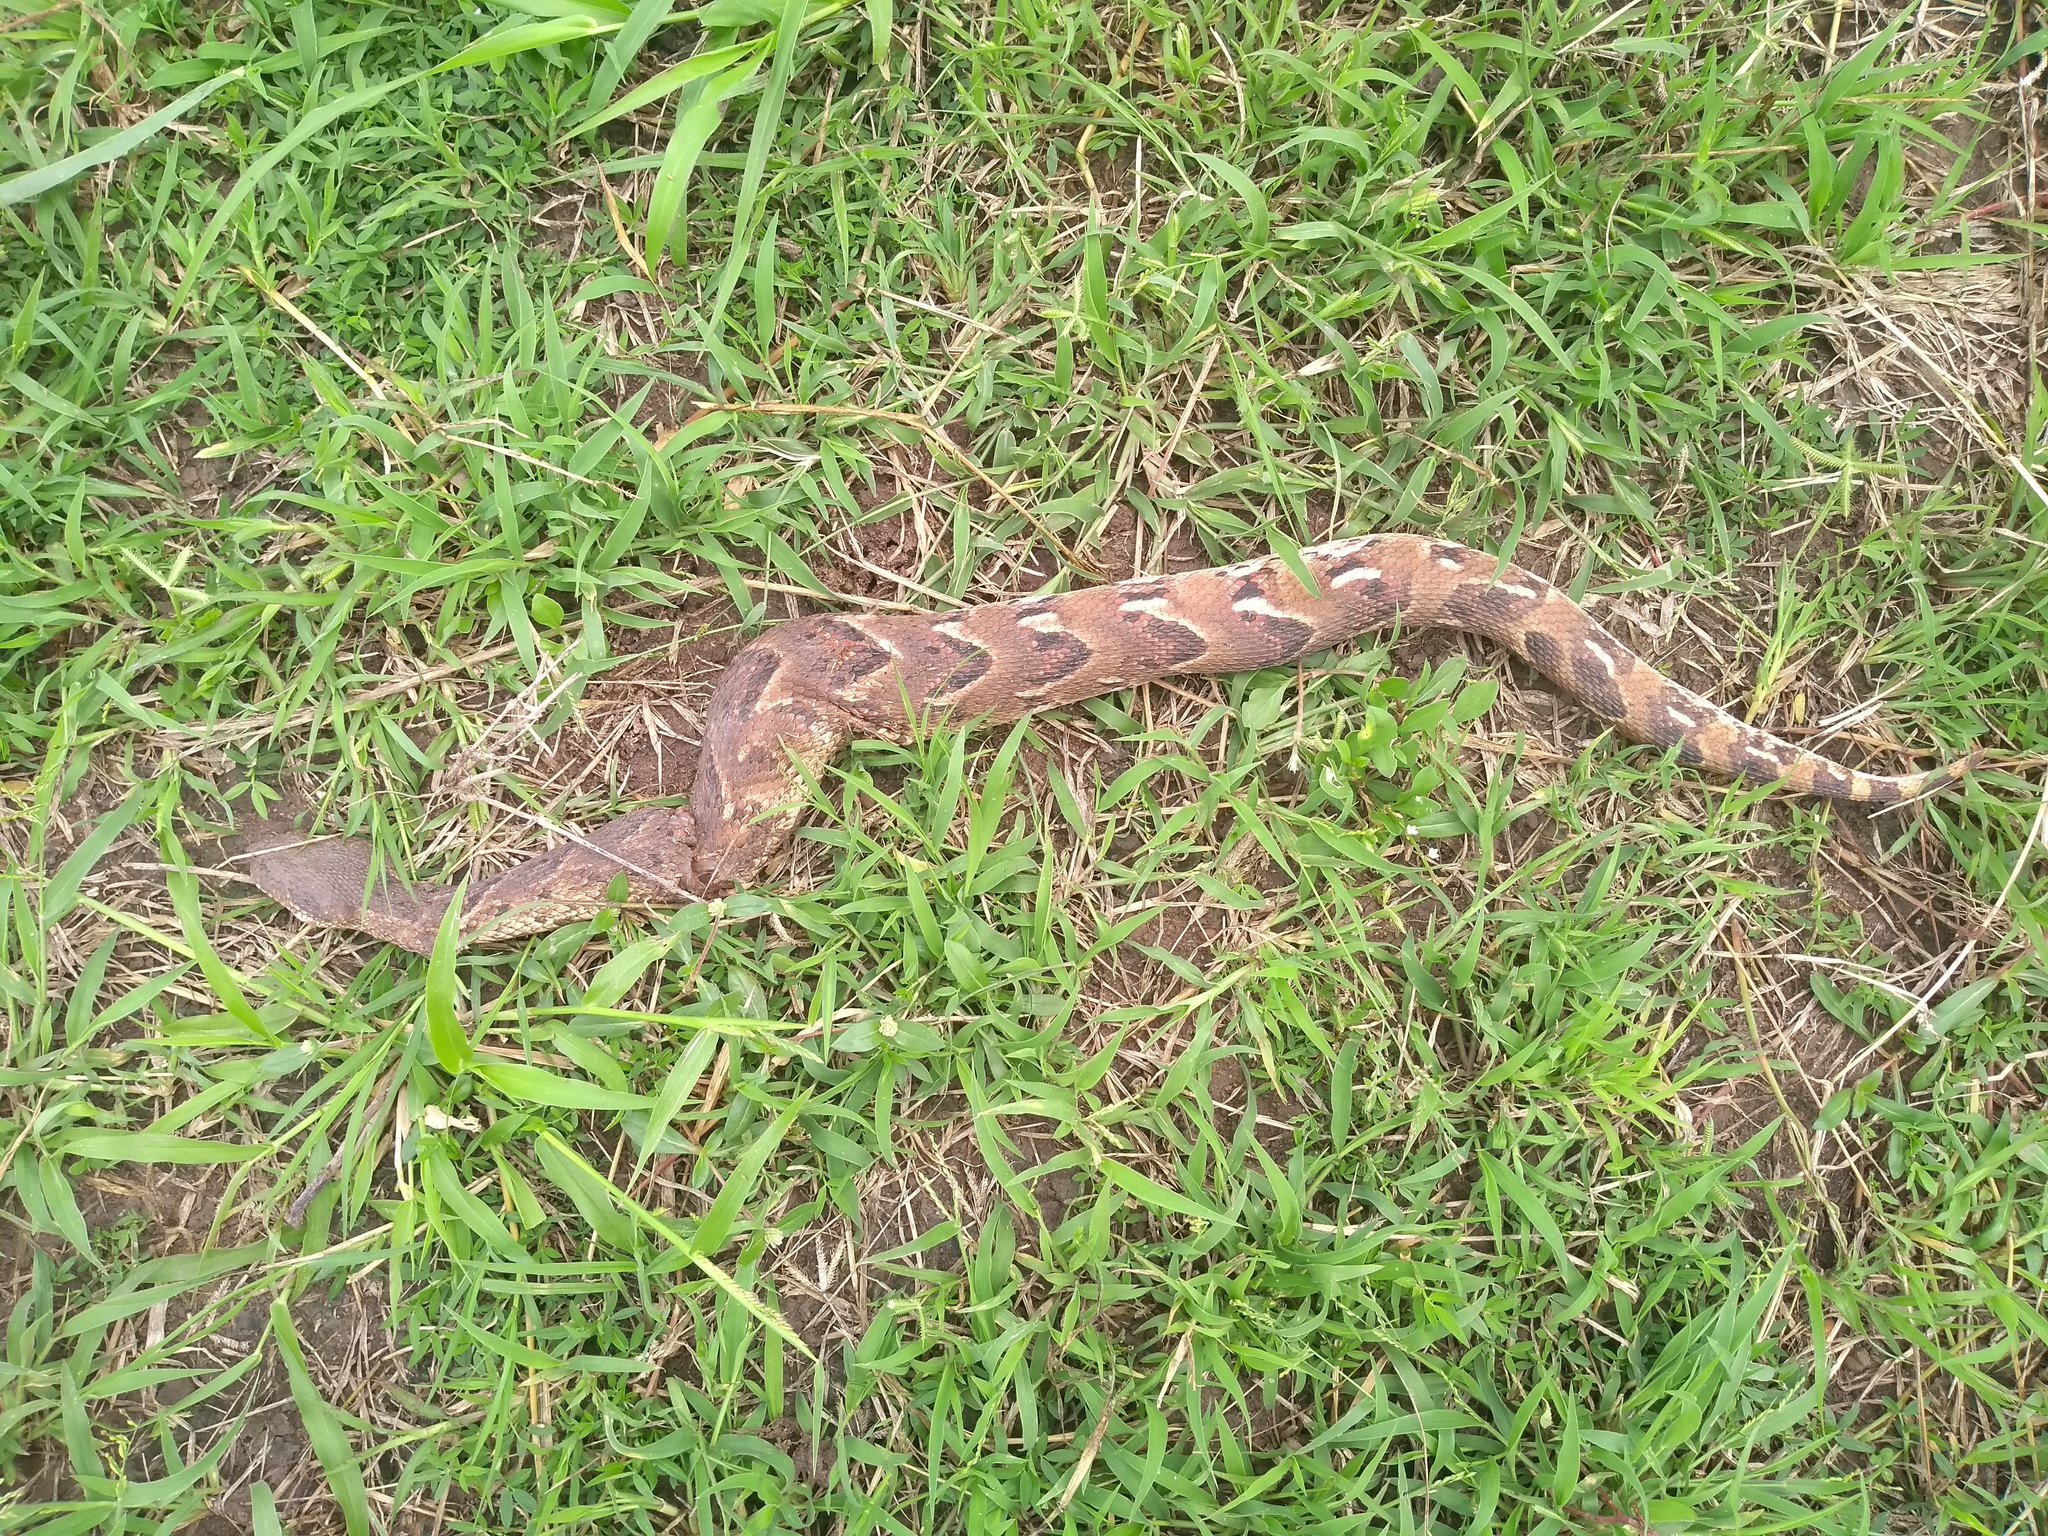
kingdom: Animalia
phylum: Chordata
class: Squamata
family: Viperidae
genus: Bitis
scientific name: Bitis arietans
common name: Puff adder
